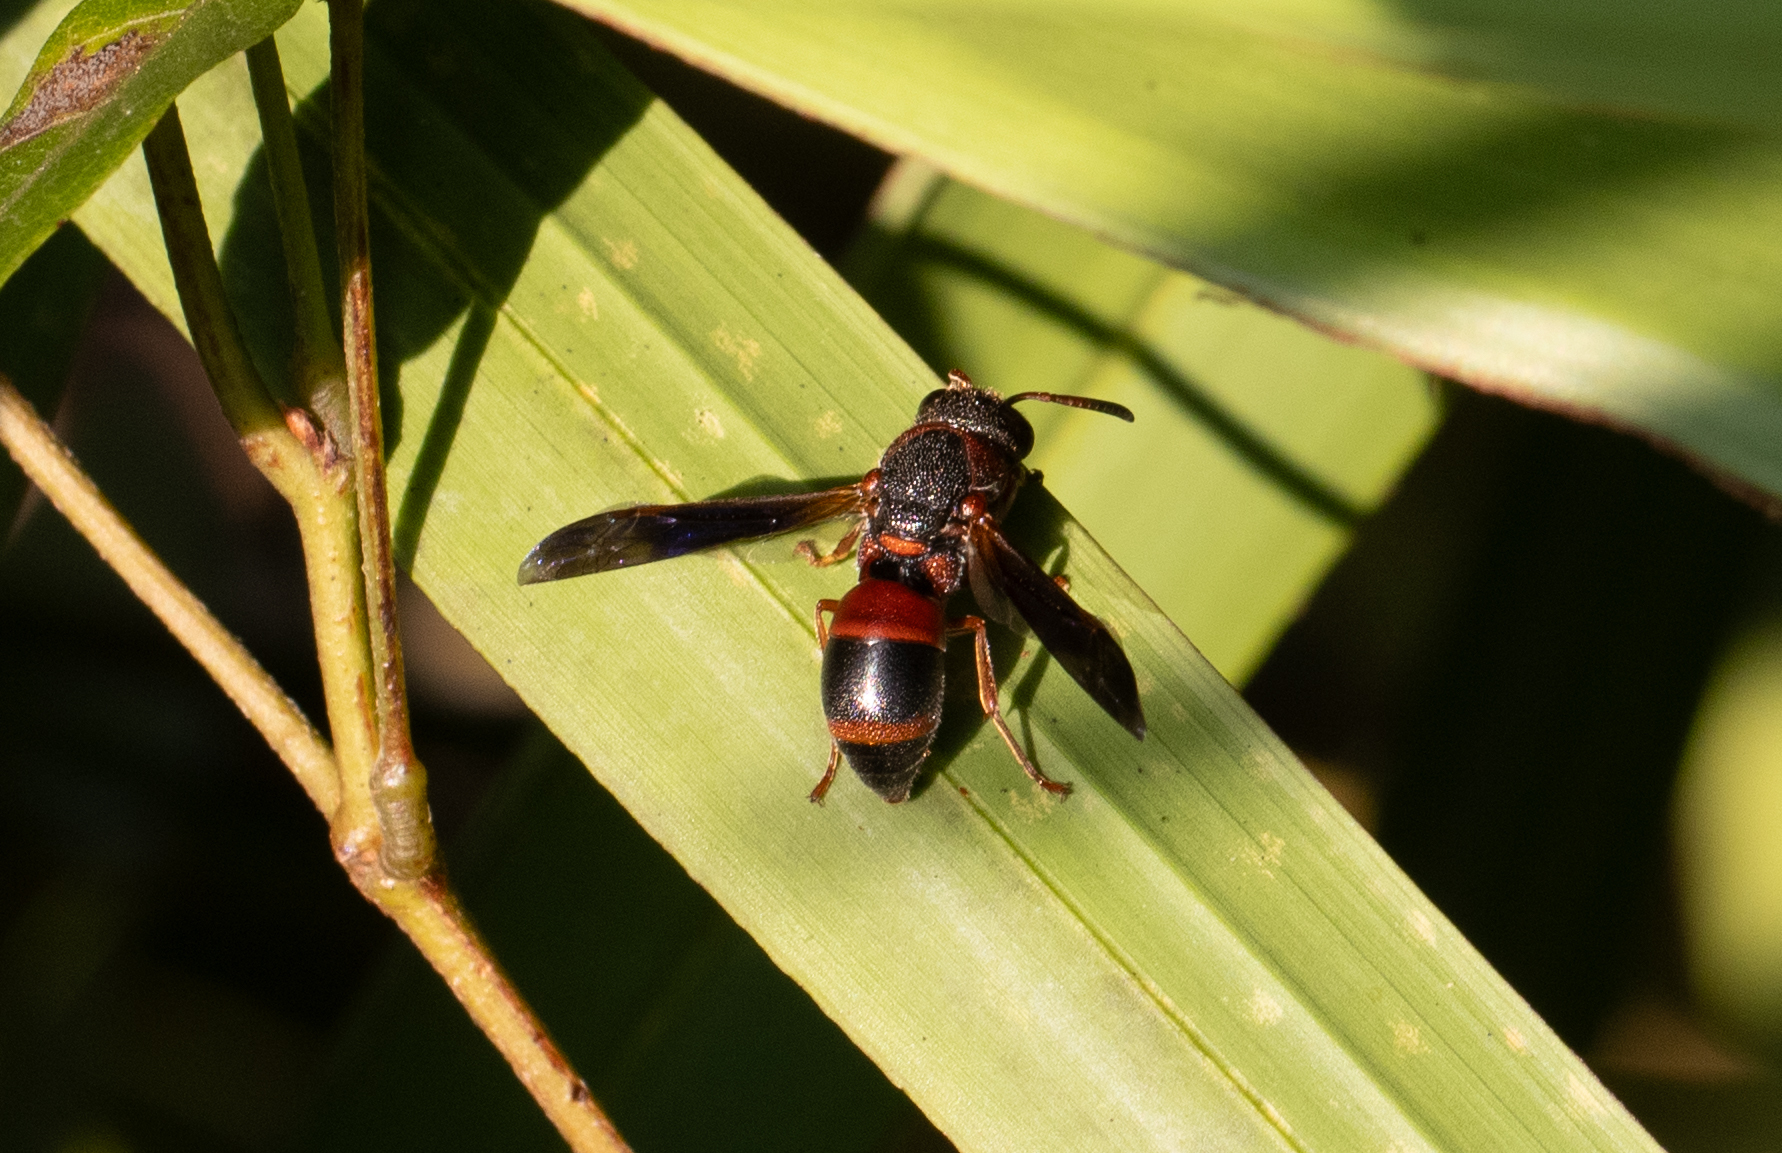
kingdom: Animalia
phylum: Arthropoda
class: Insecta
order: Hymenoptera
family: Eumenidae
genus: Pachodynerus
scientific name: Pachodynerus erynnis
